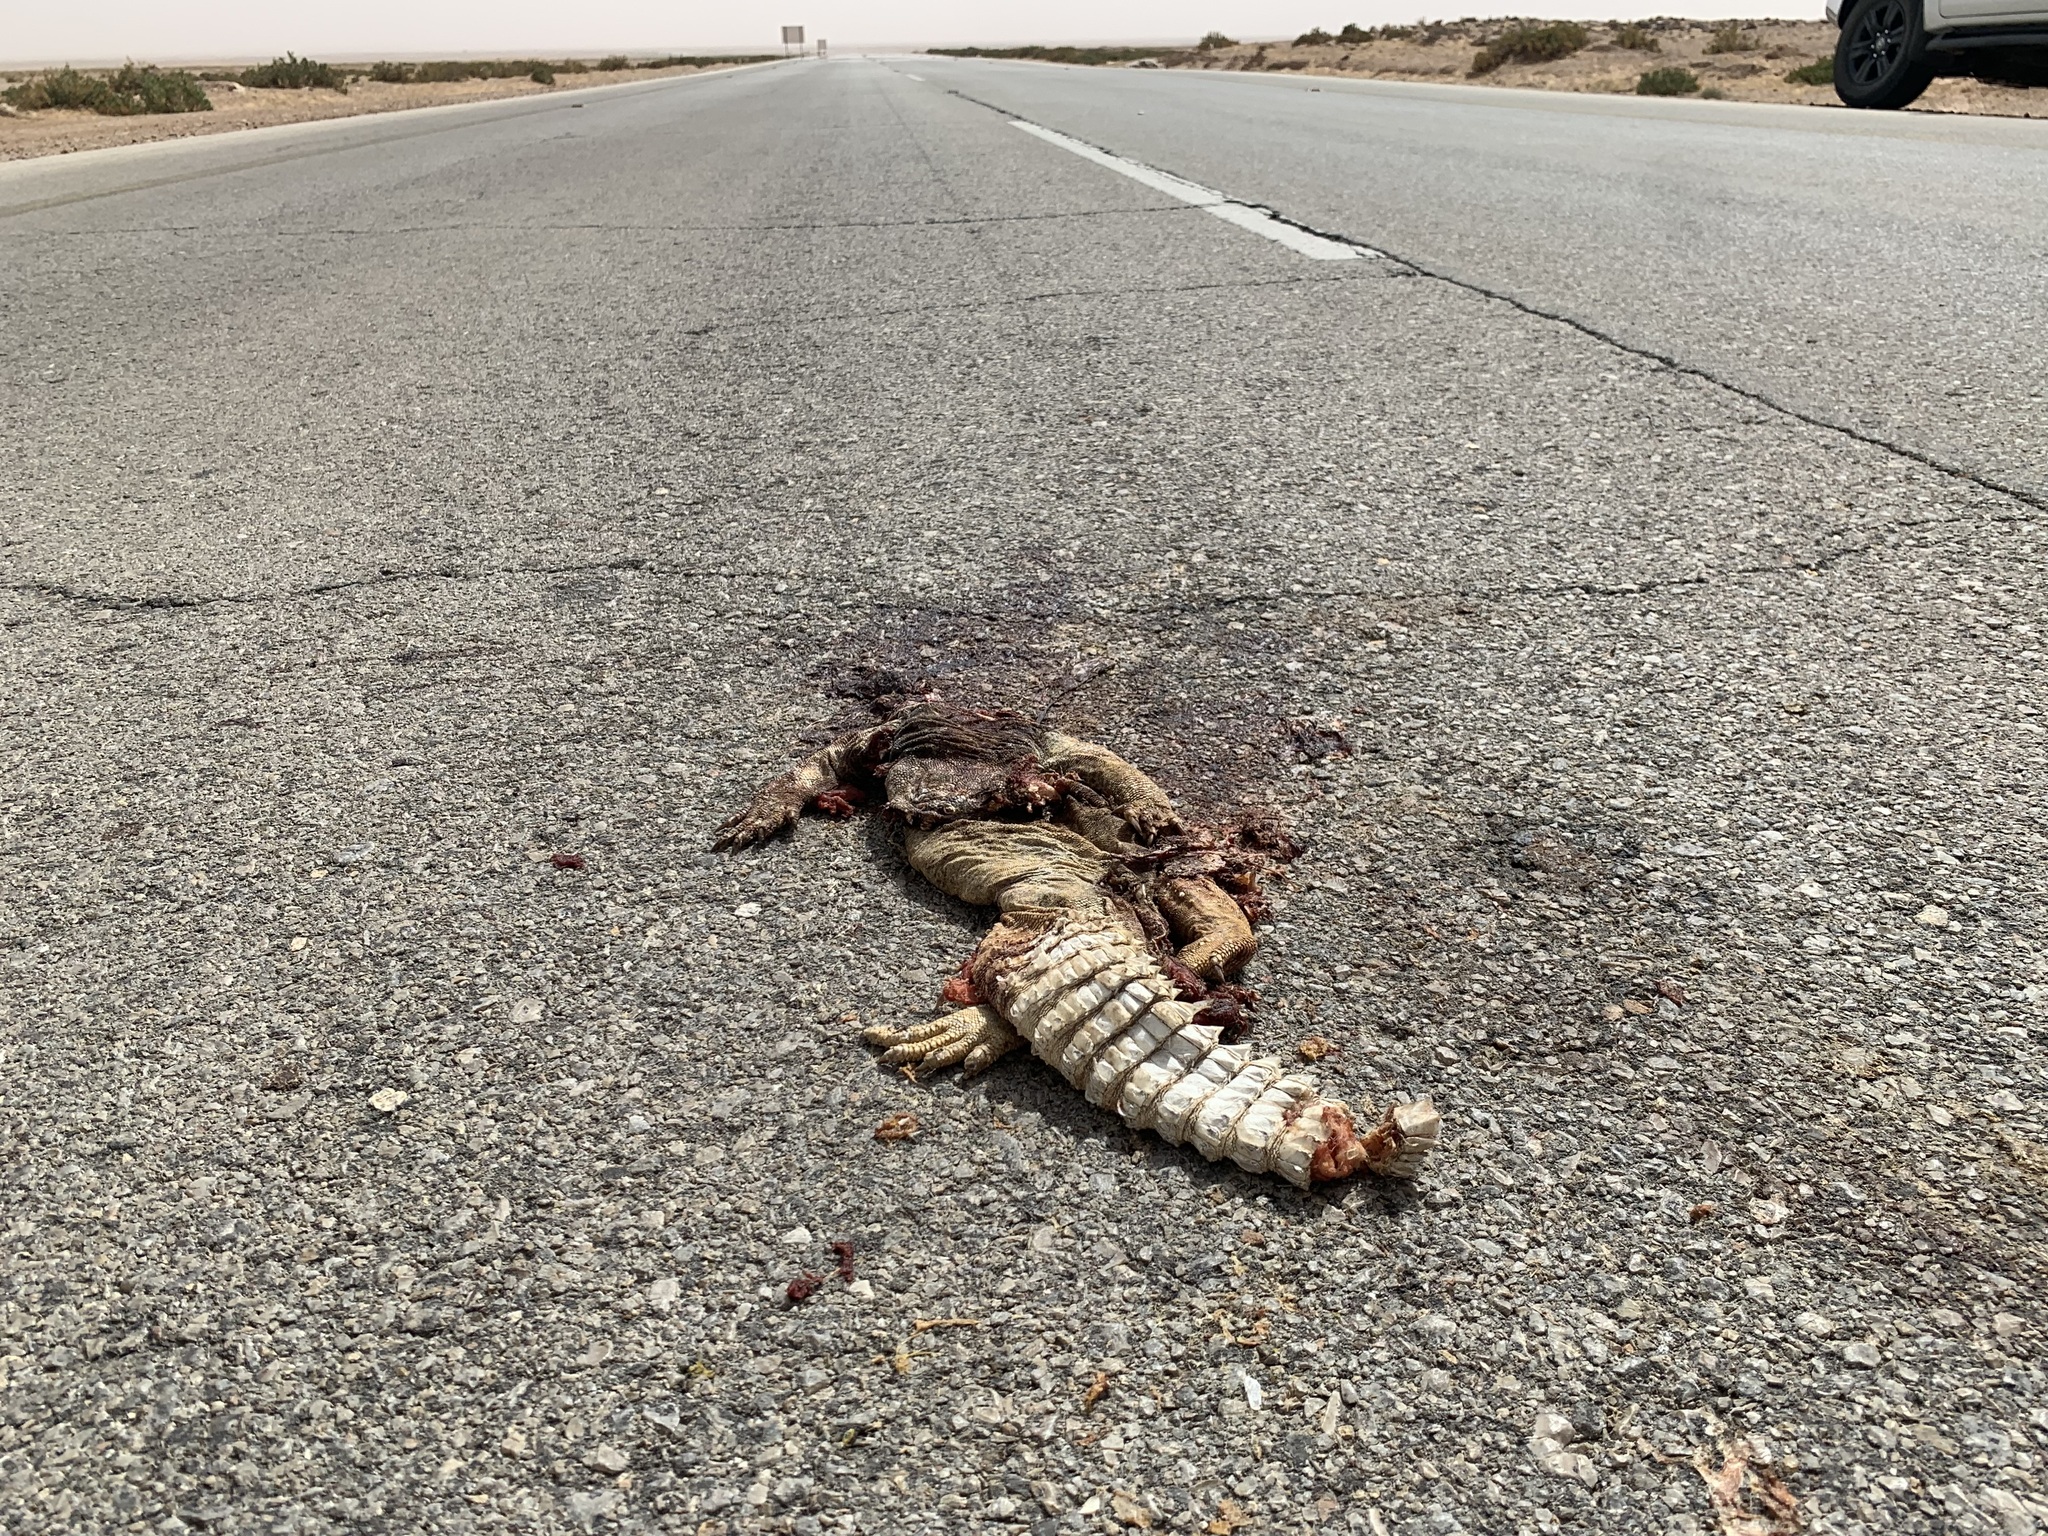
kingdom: Animalia
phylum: Chordata
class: Squamata
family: Agamidae
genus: Uromastyx
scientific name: Uromastyx aegyptia
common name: Egyptian mastigure
